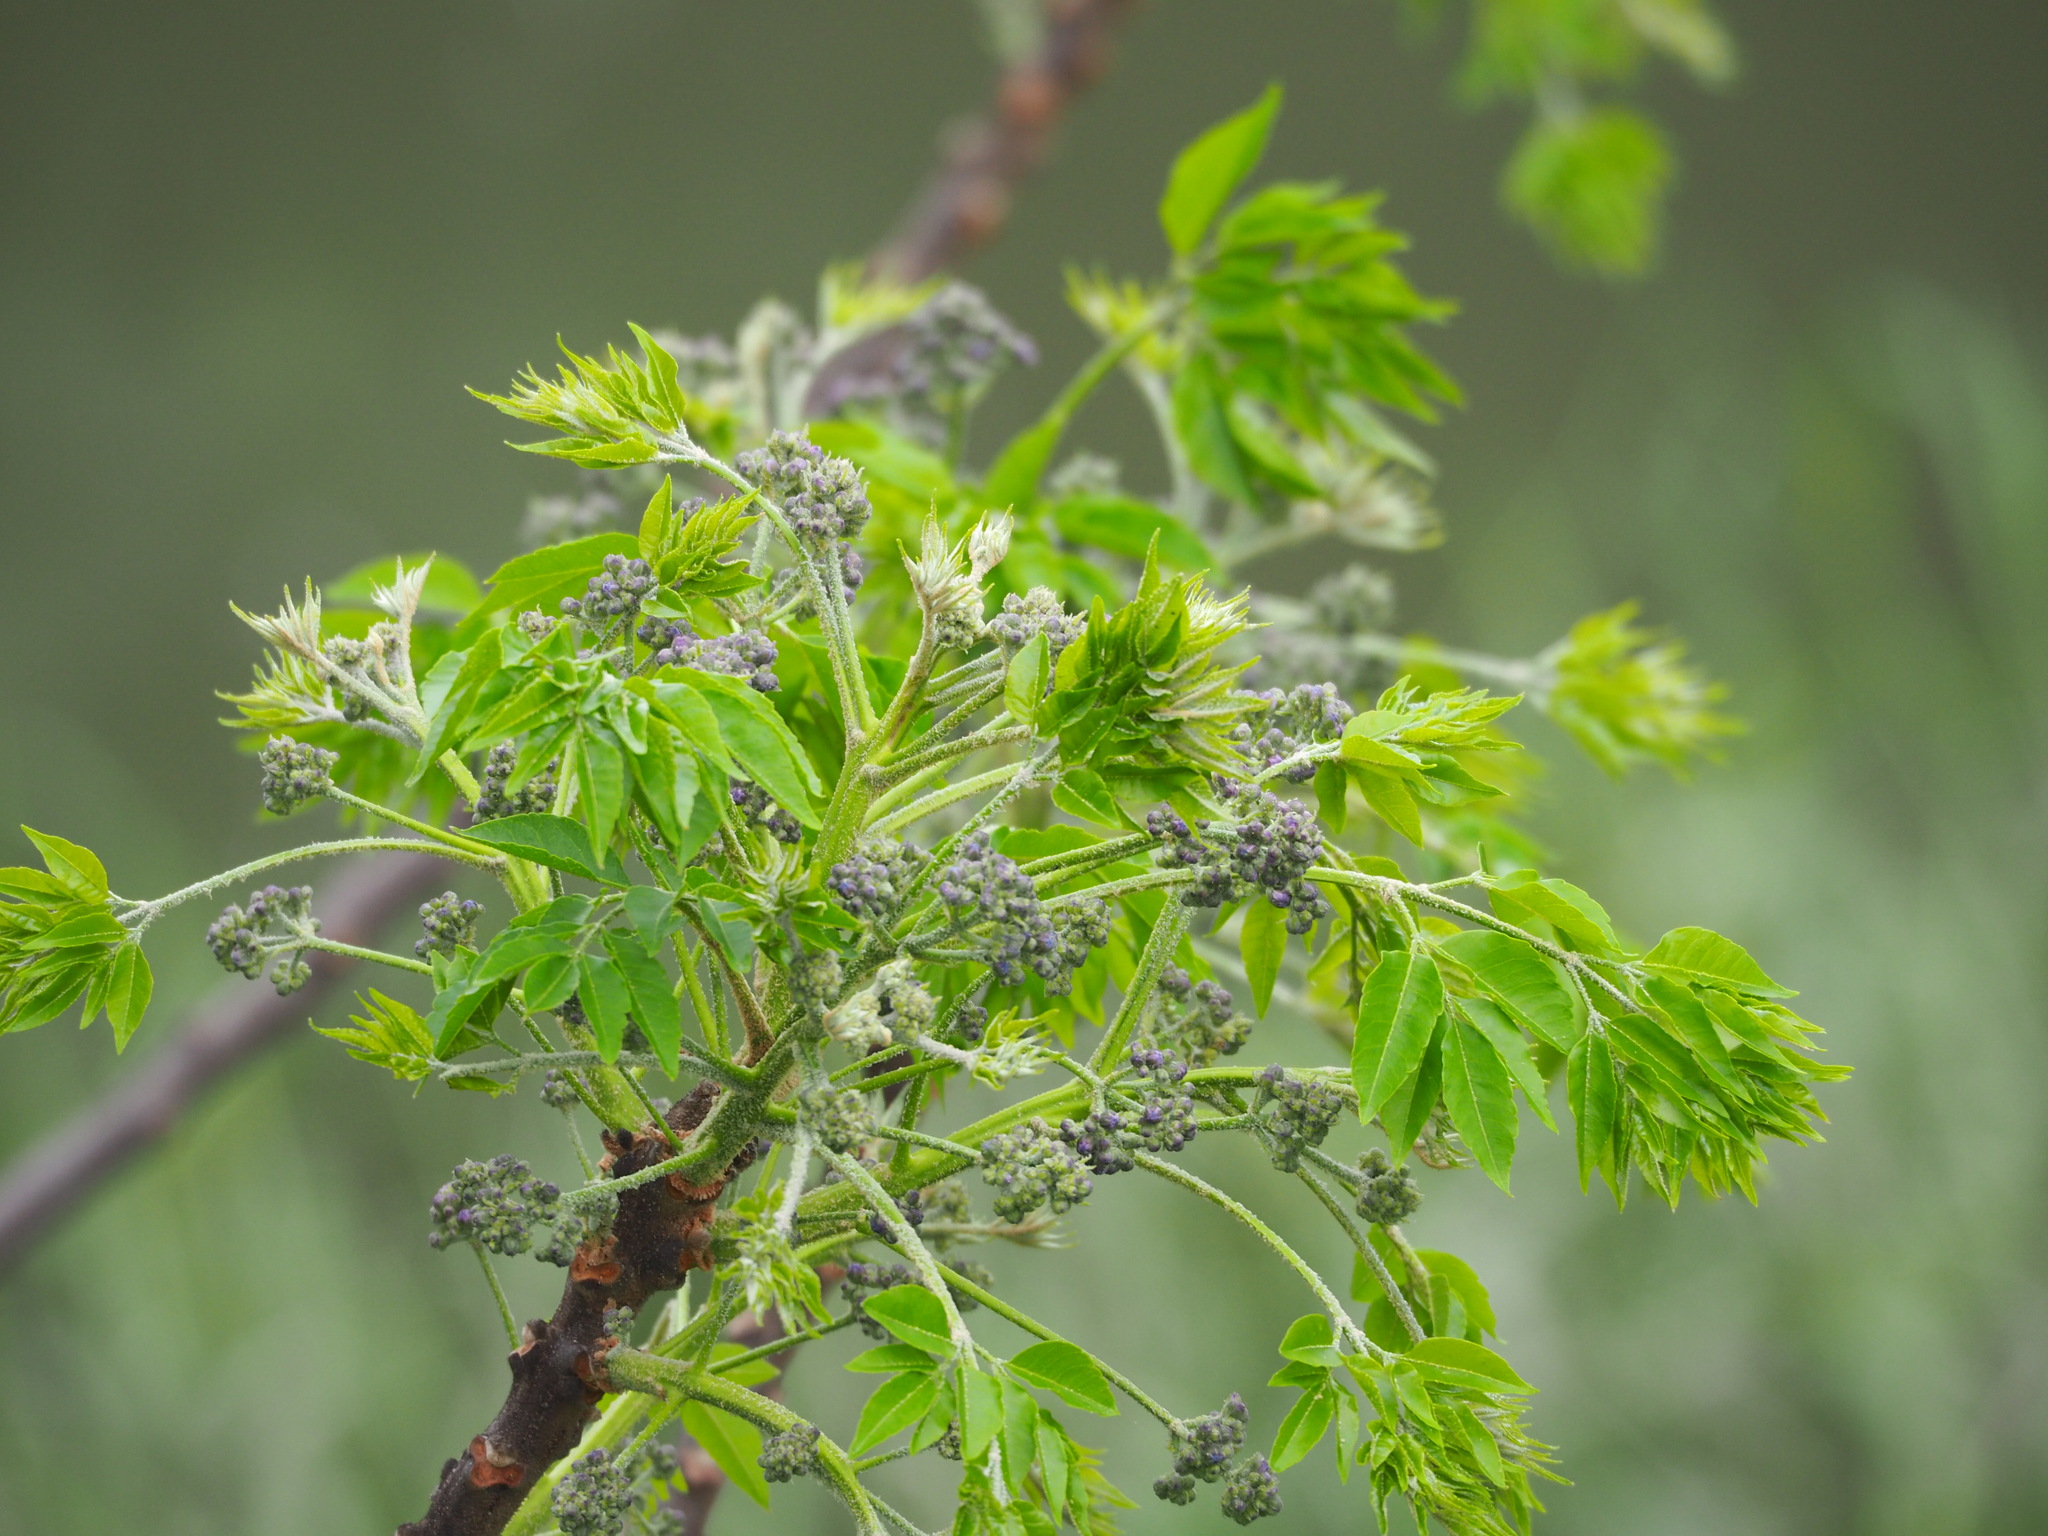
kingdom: Plantae
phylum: Tracheophyta
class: Magnoliopsida
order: Sapindales
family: Meliaceae
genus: Melia
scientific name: Melia azedarach
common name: Chinaberrytree
